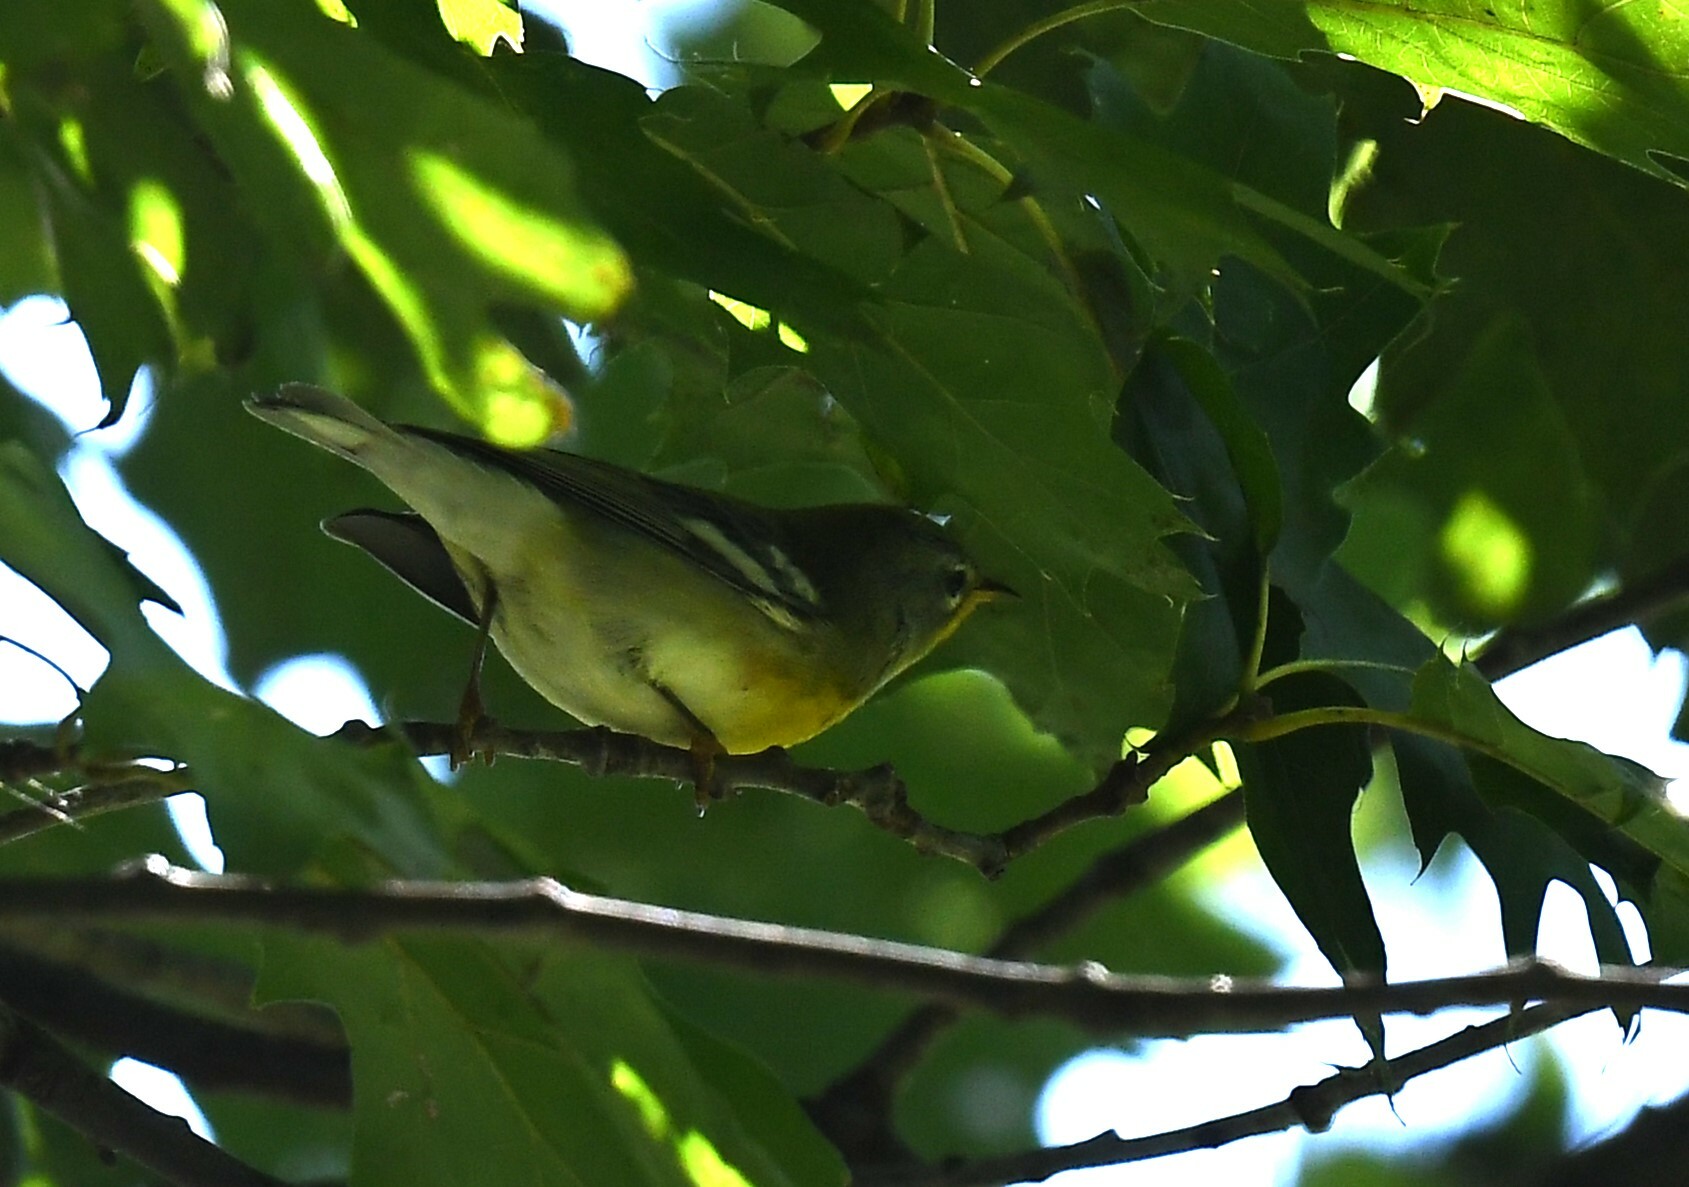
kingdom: Animalia
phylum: Chordata
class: Aves
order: Passeriformes
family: Parulidae
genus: Setophaga
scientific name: Setophaga americana
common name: Northern parula
